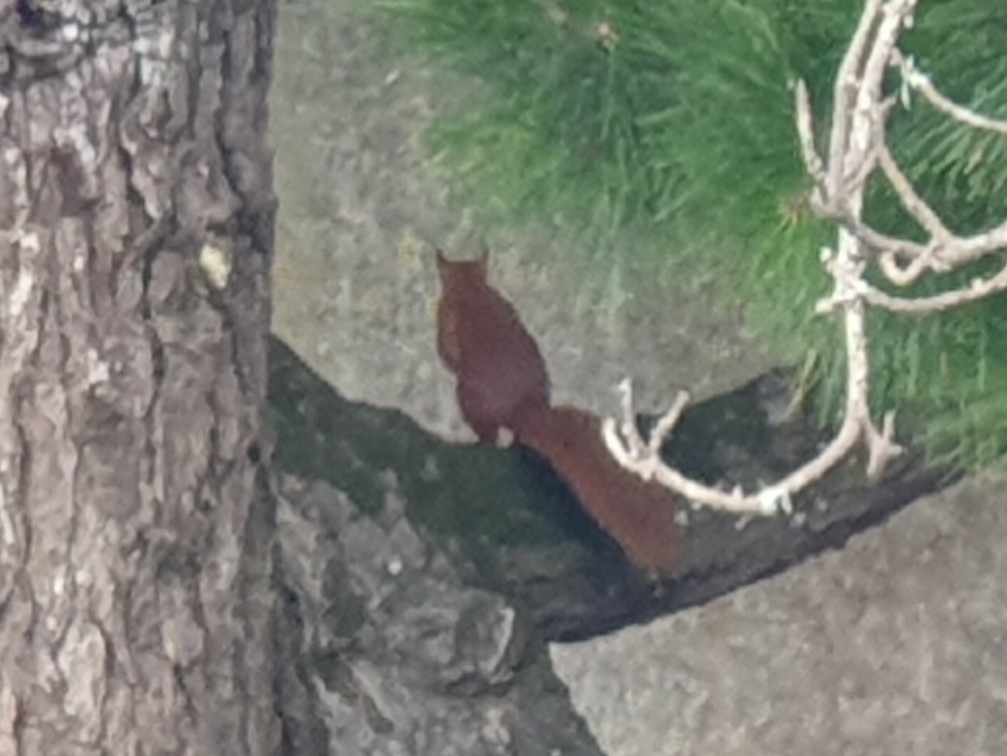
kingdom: Animalia
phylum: Chordata
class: Mammalia
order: Rodentia
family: Sciuridae
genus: Sciurus
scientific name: Sciurus vulgaris
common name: Eurasian red squirrel
